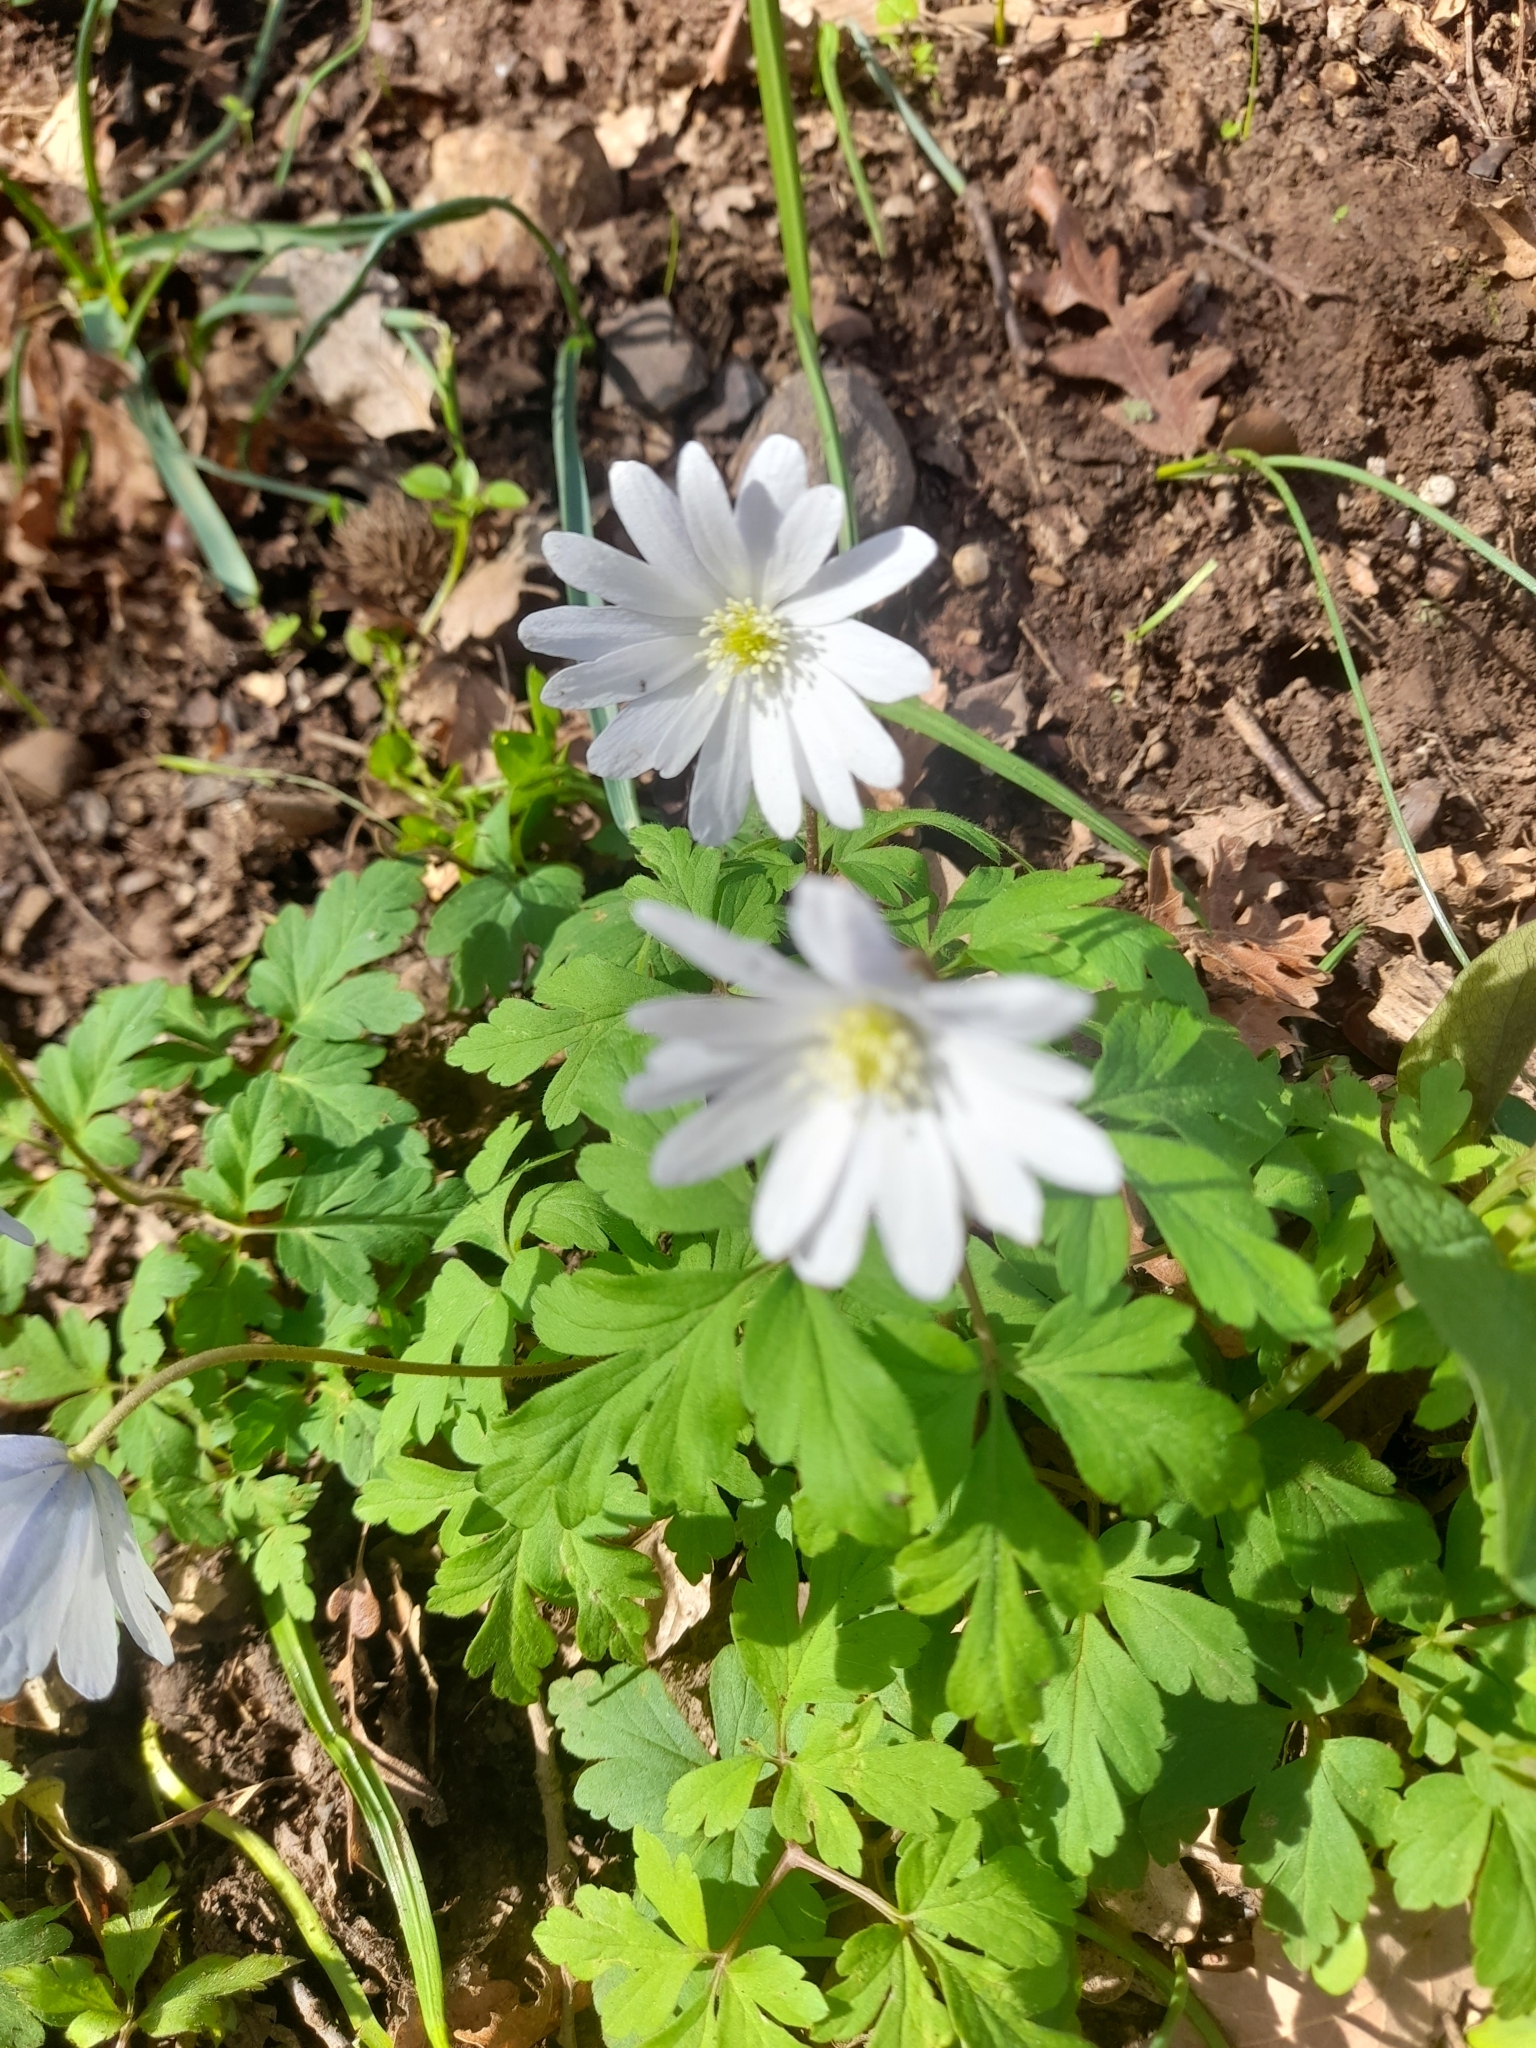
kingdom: Plantae
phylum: Tracheophyta
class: Magnoliopsida
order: Ranunculales
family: Ranunculaceae
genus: Anemone
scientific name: Anemone apennina
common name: Blue anemone
